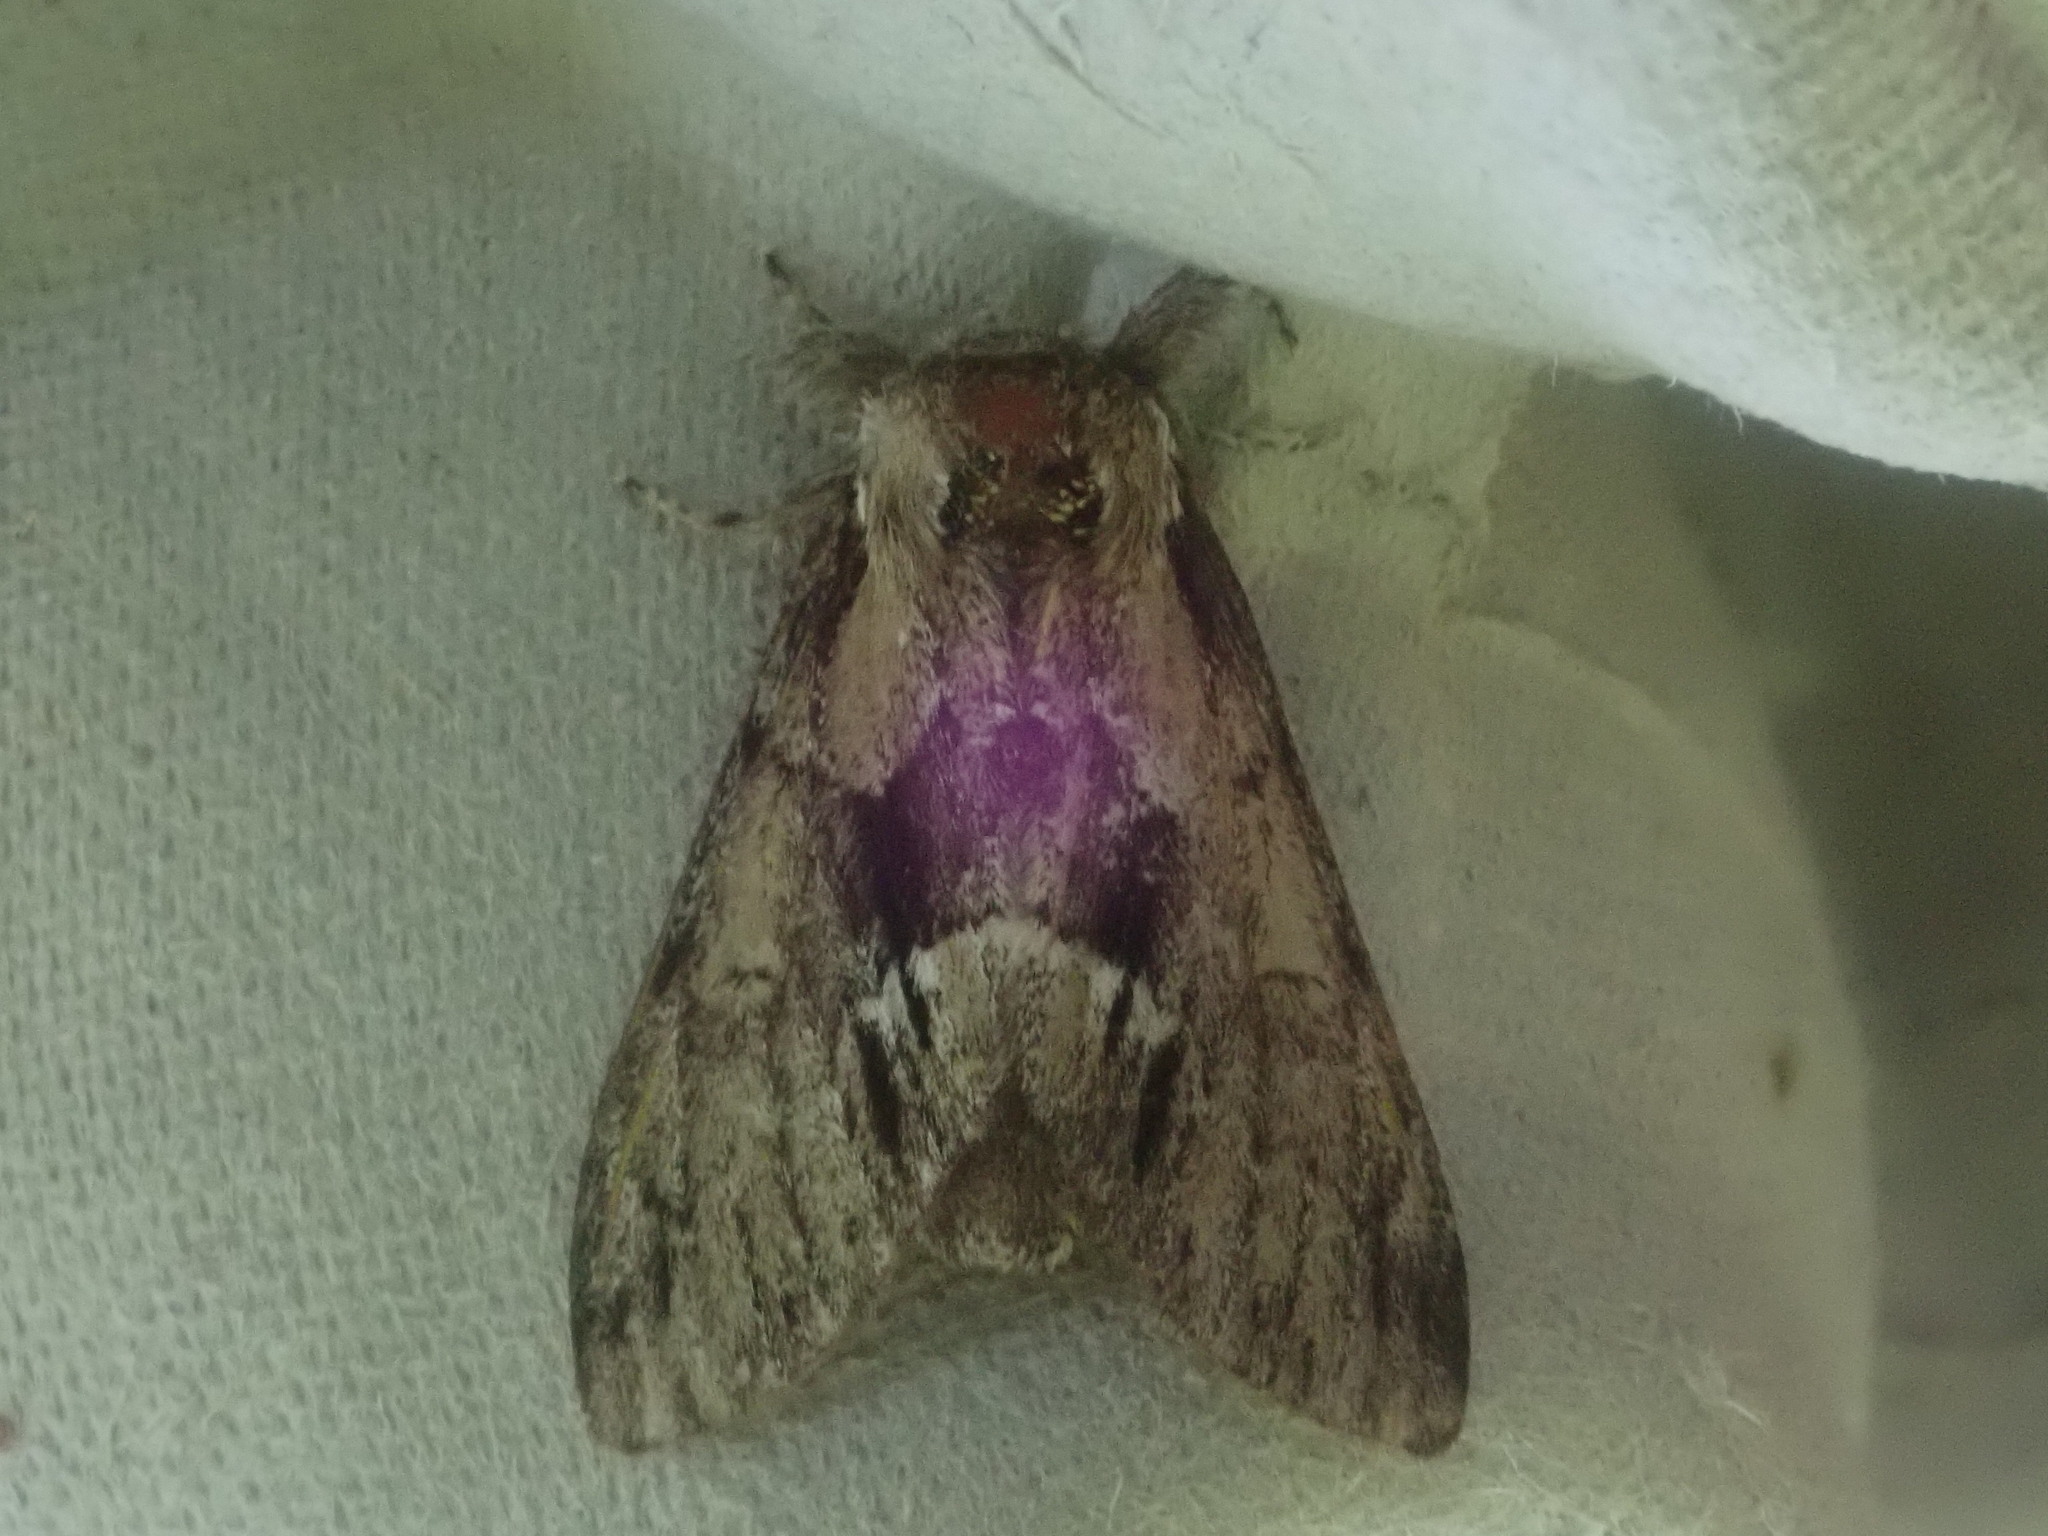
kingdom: Animalia
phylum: Arthropoda
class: Insecta
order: Lepidoptera
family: Notodontidae
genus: Paraeschra
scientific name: Paraeschra georgica
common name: Georgian prominent
